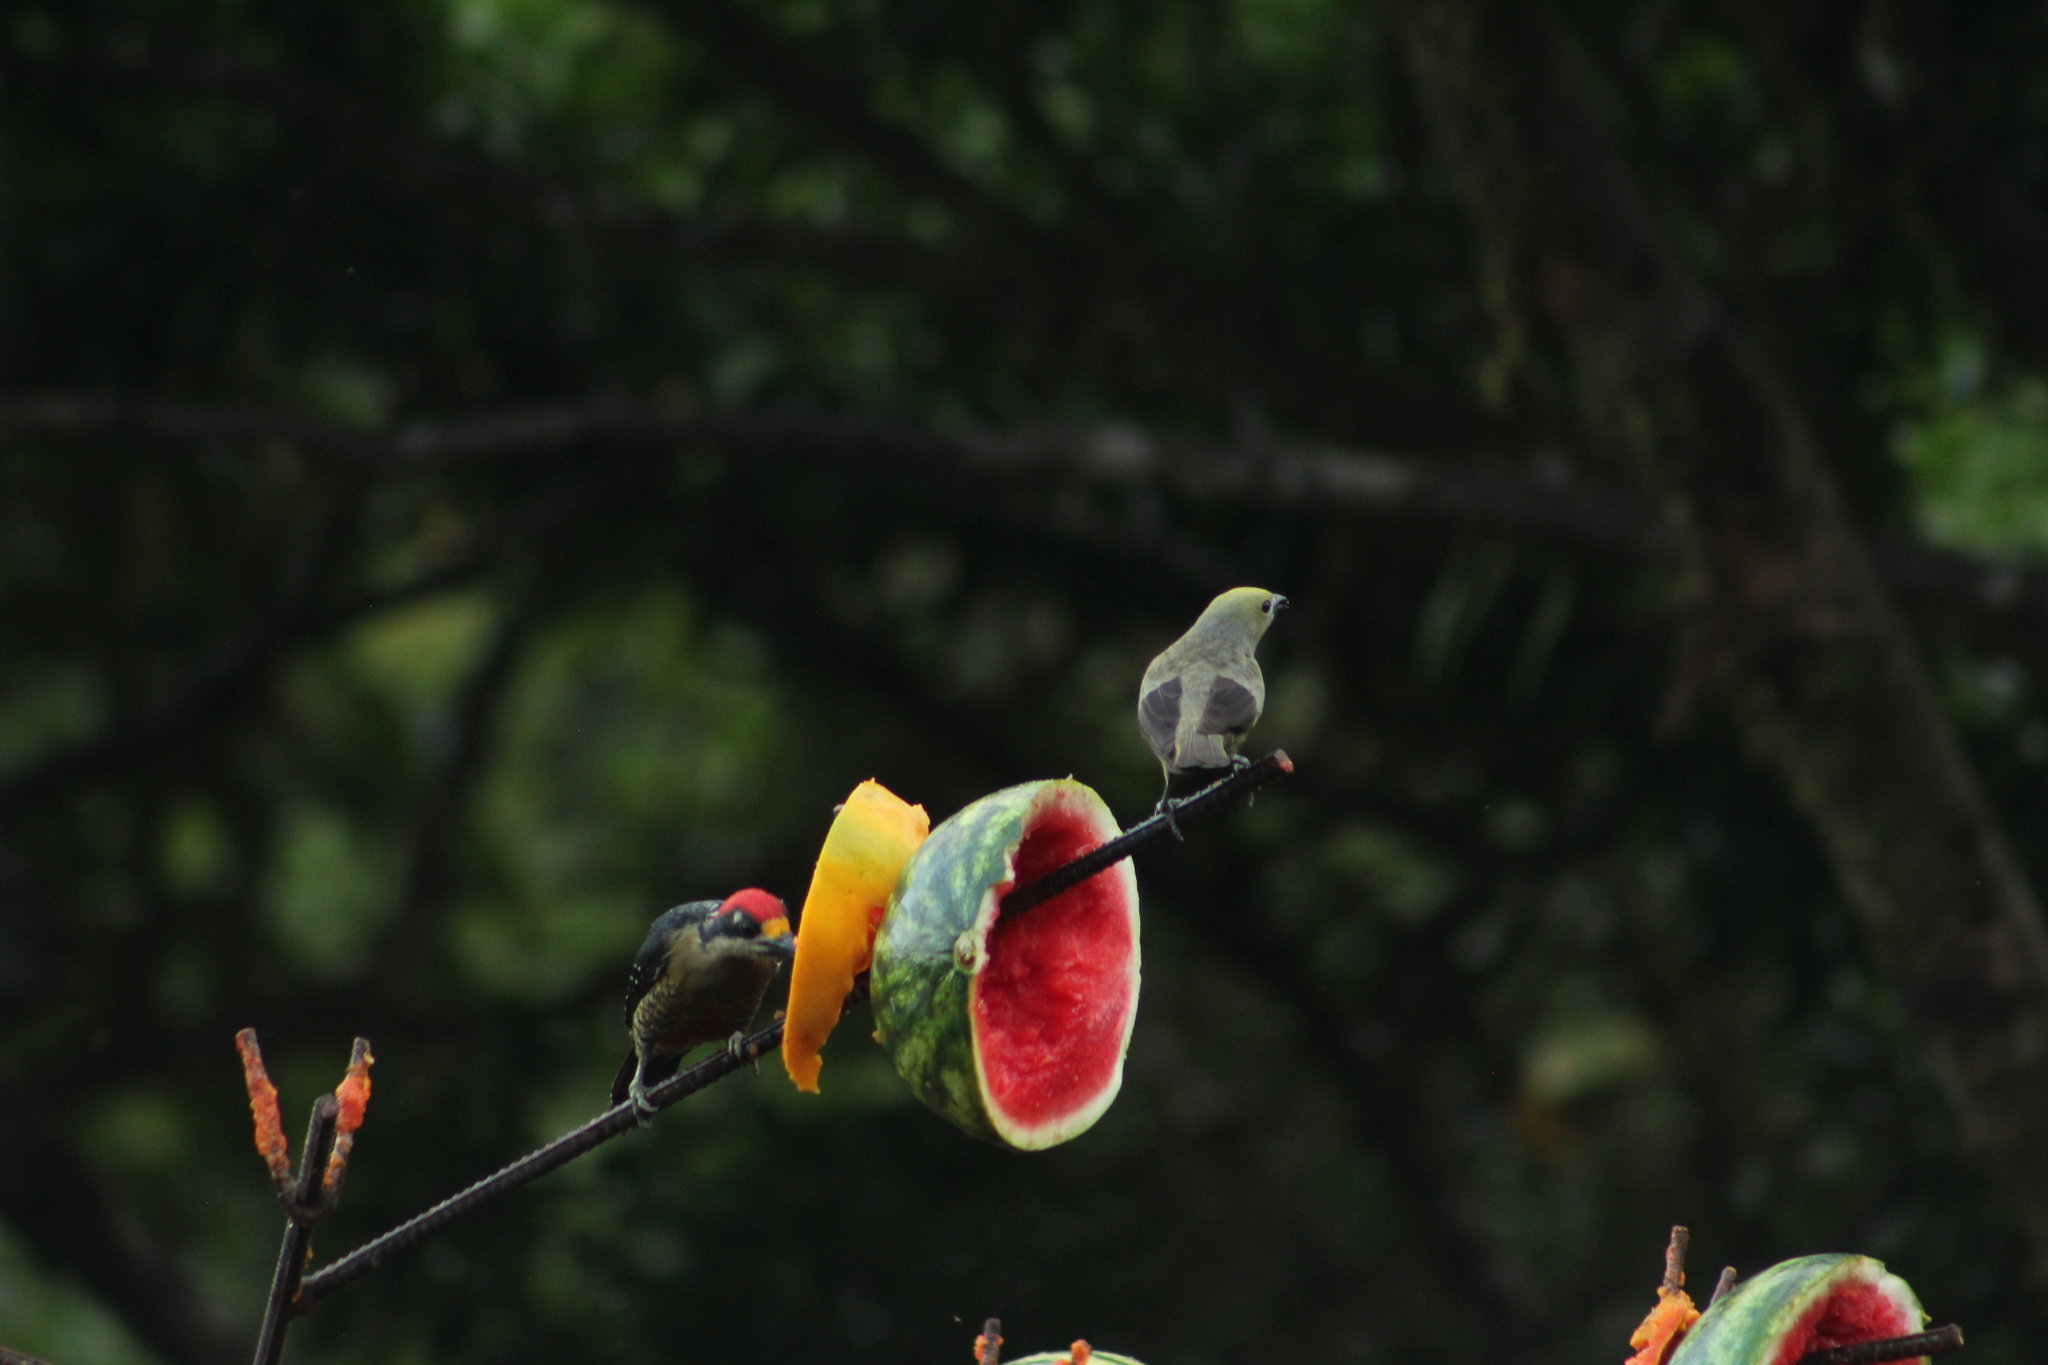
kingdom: Animalia
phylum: Chordata
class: Aves
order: Passeriformes
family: Thraupidae
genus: Thraupis
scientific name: Thraupis palmarum
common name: Palm tanager
